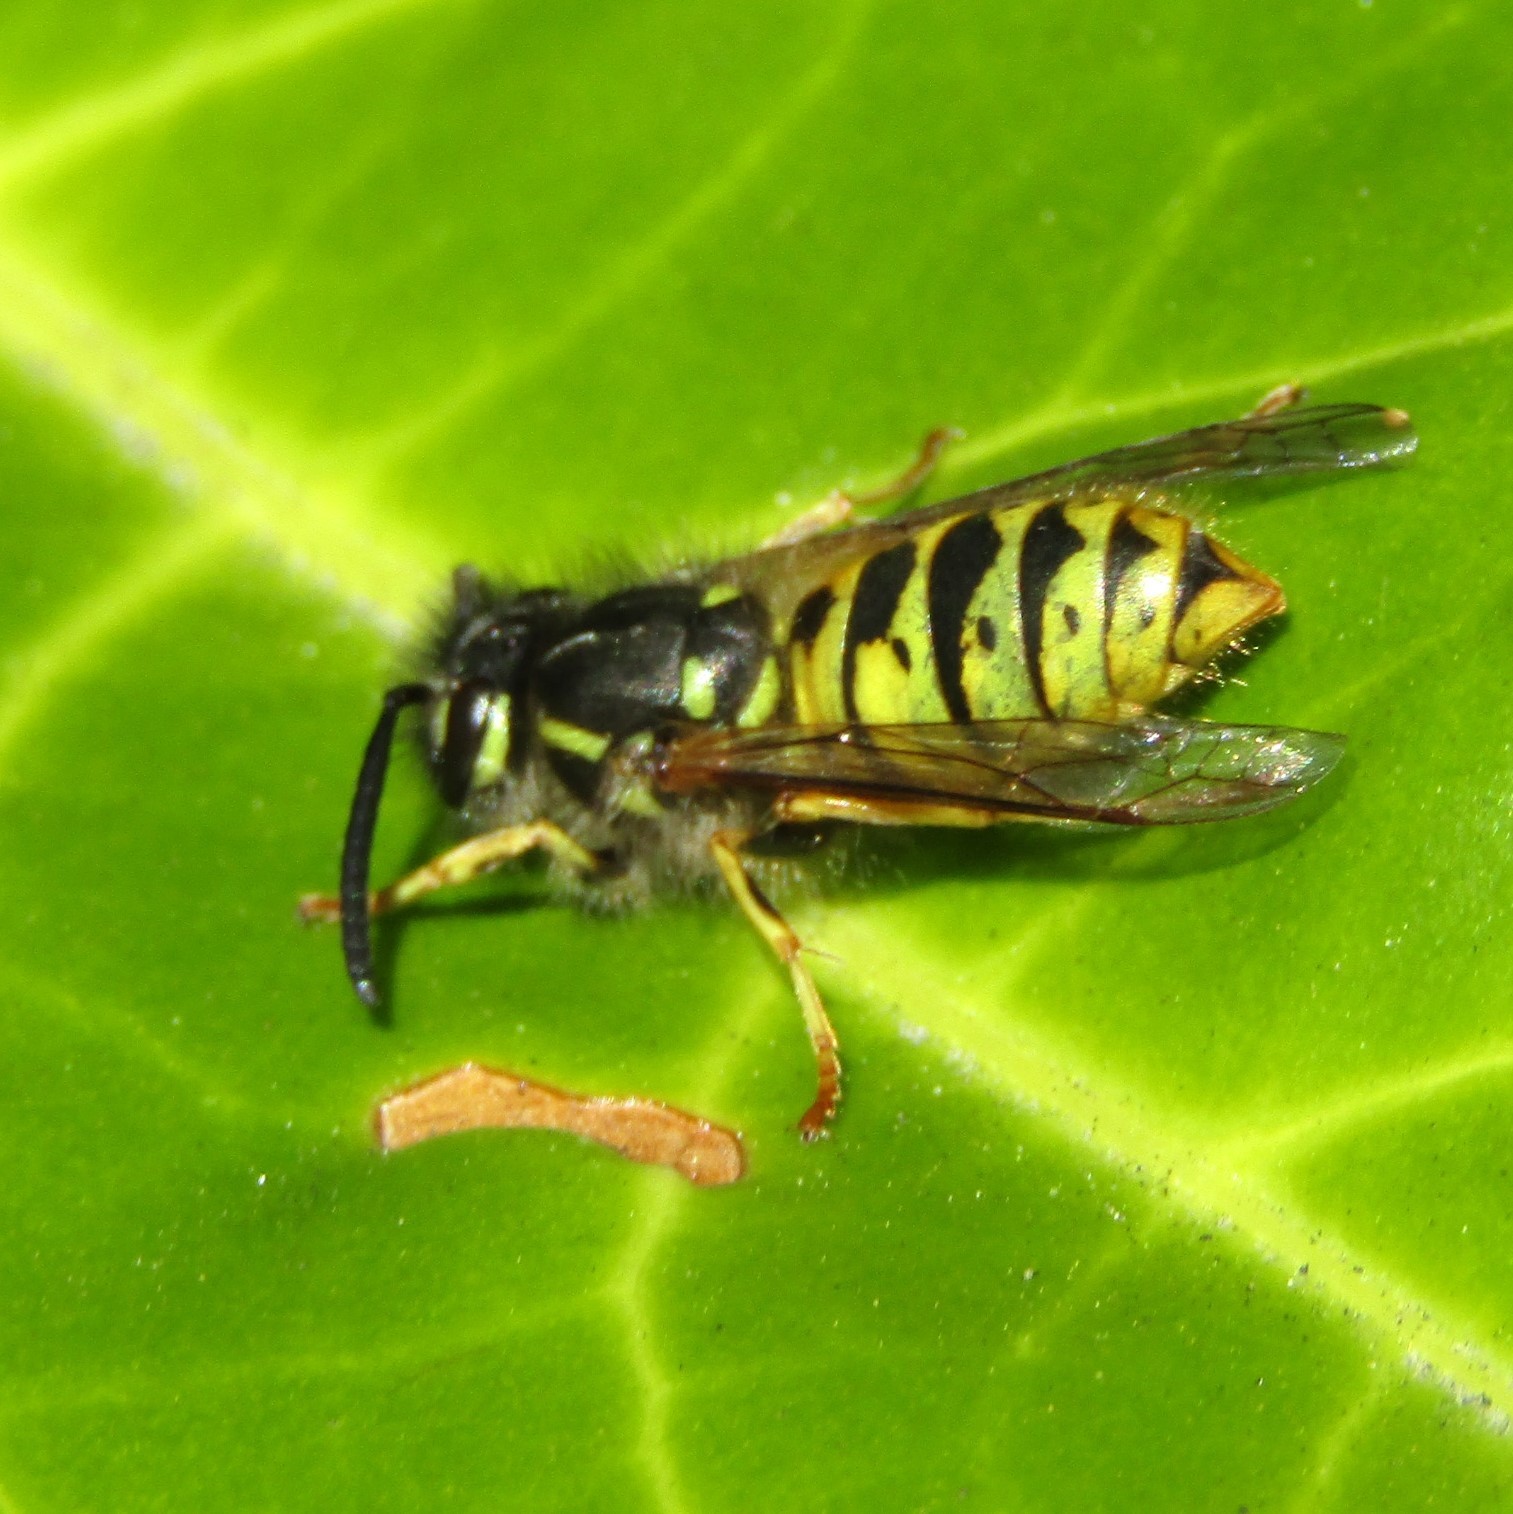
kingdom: Animalia
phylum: Arthropoda
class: Insecta
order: Hymenoptera
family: Vespidae
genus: Vespula
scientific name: Vespula vulgaris
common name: Common wasp
